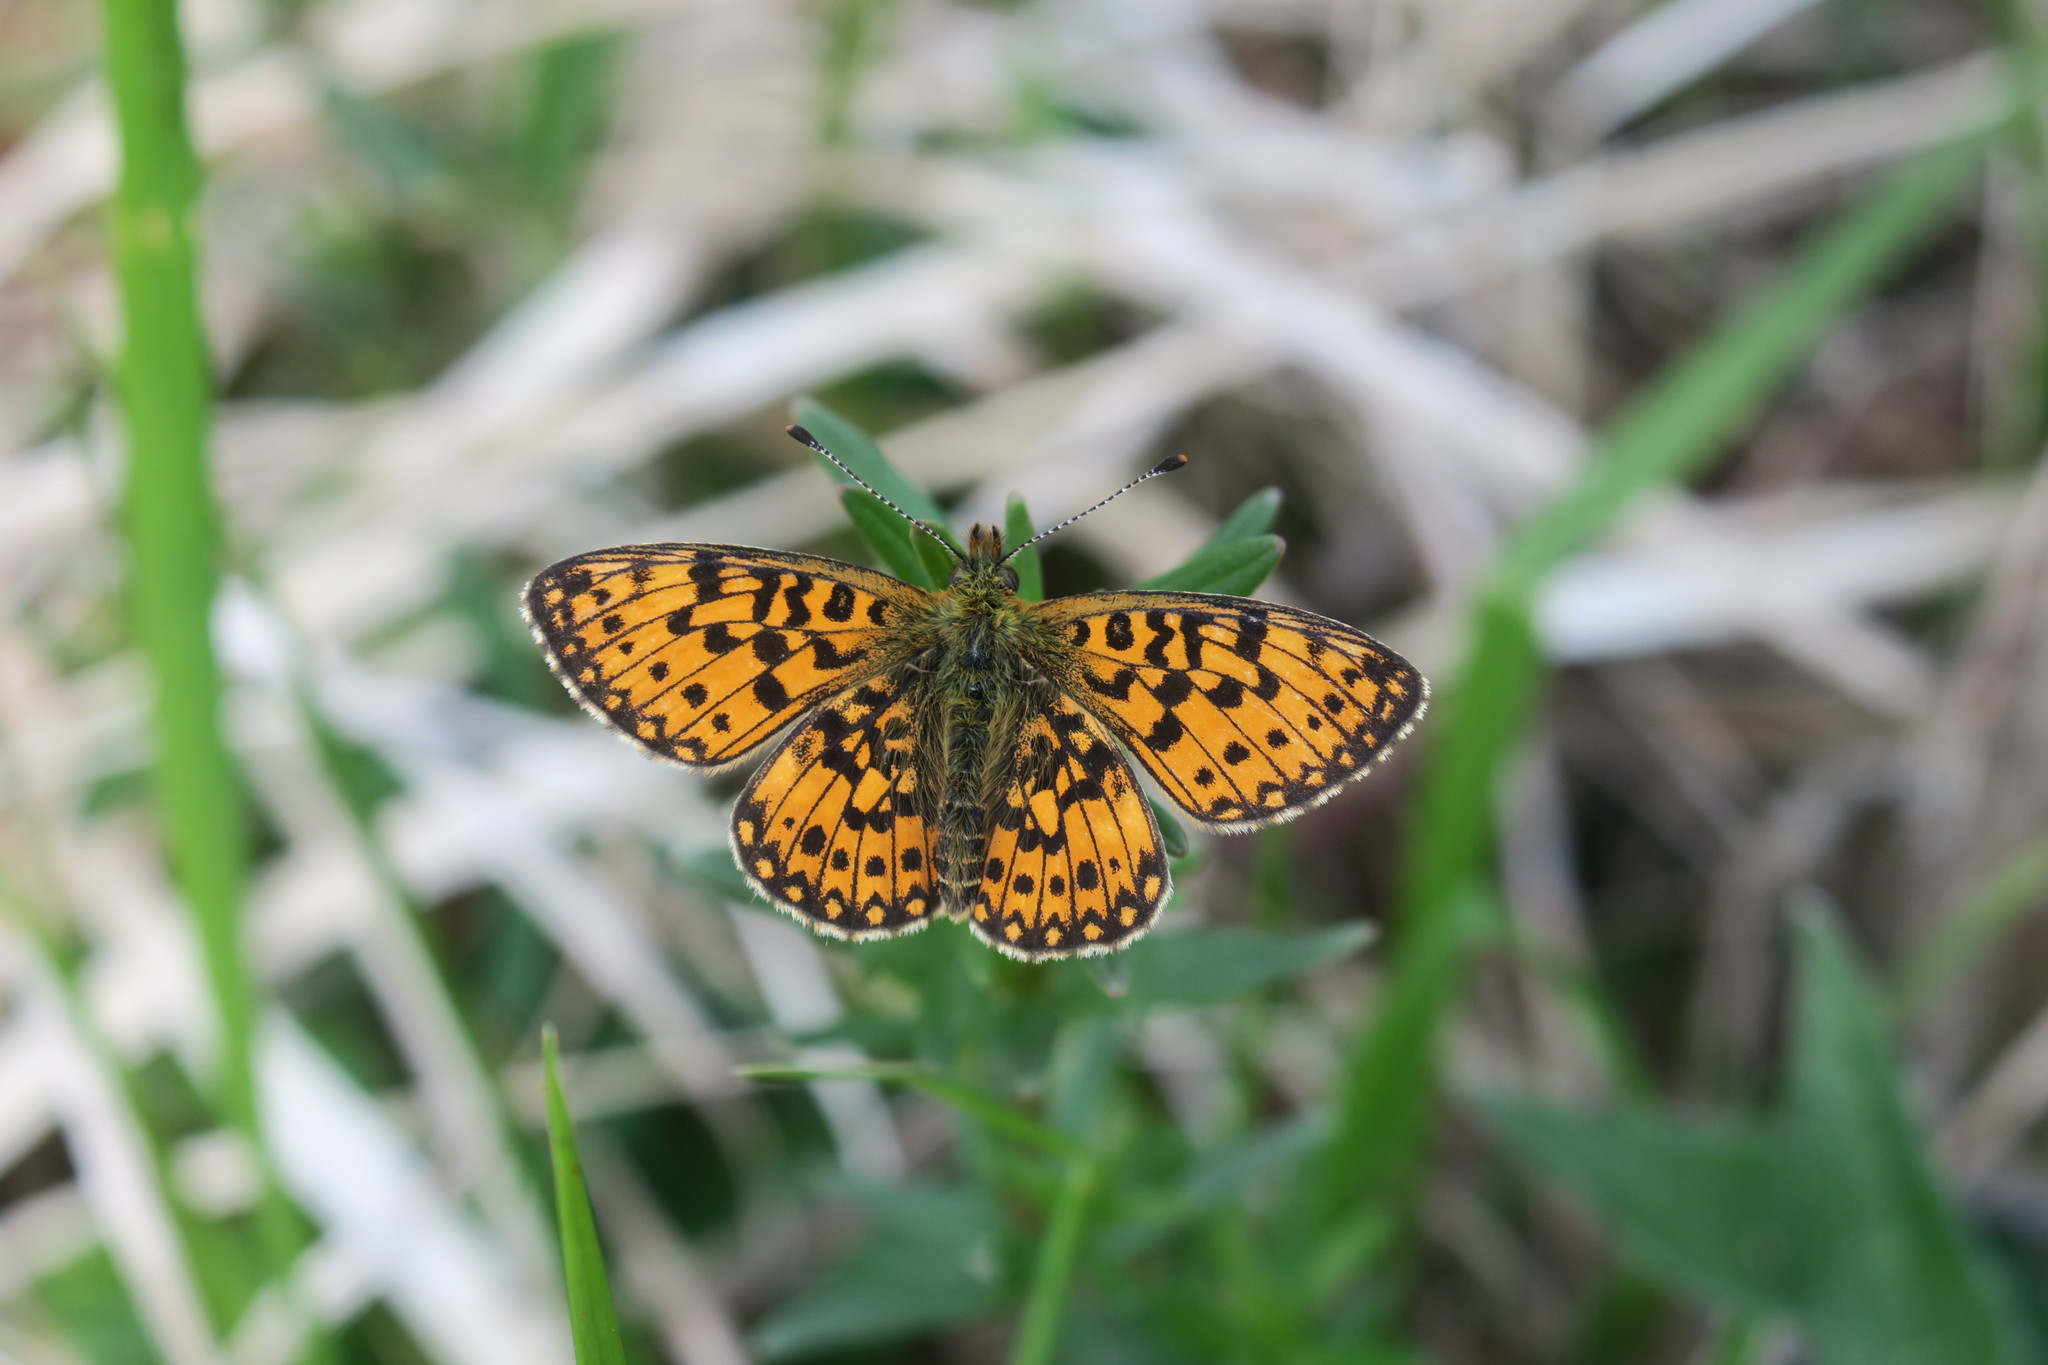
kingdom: Animalia
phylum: Arthropoda
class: Insecta
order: Lepidoptera
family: Nymphalidae
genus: Boloria
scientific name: Boloria selene
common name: Small pearl-bordered fritillary
